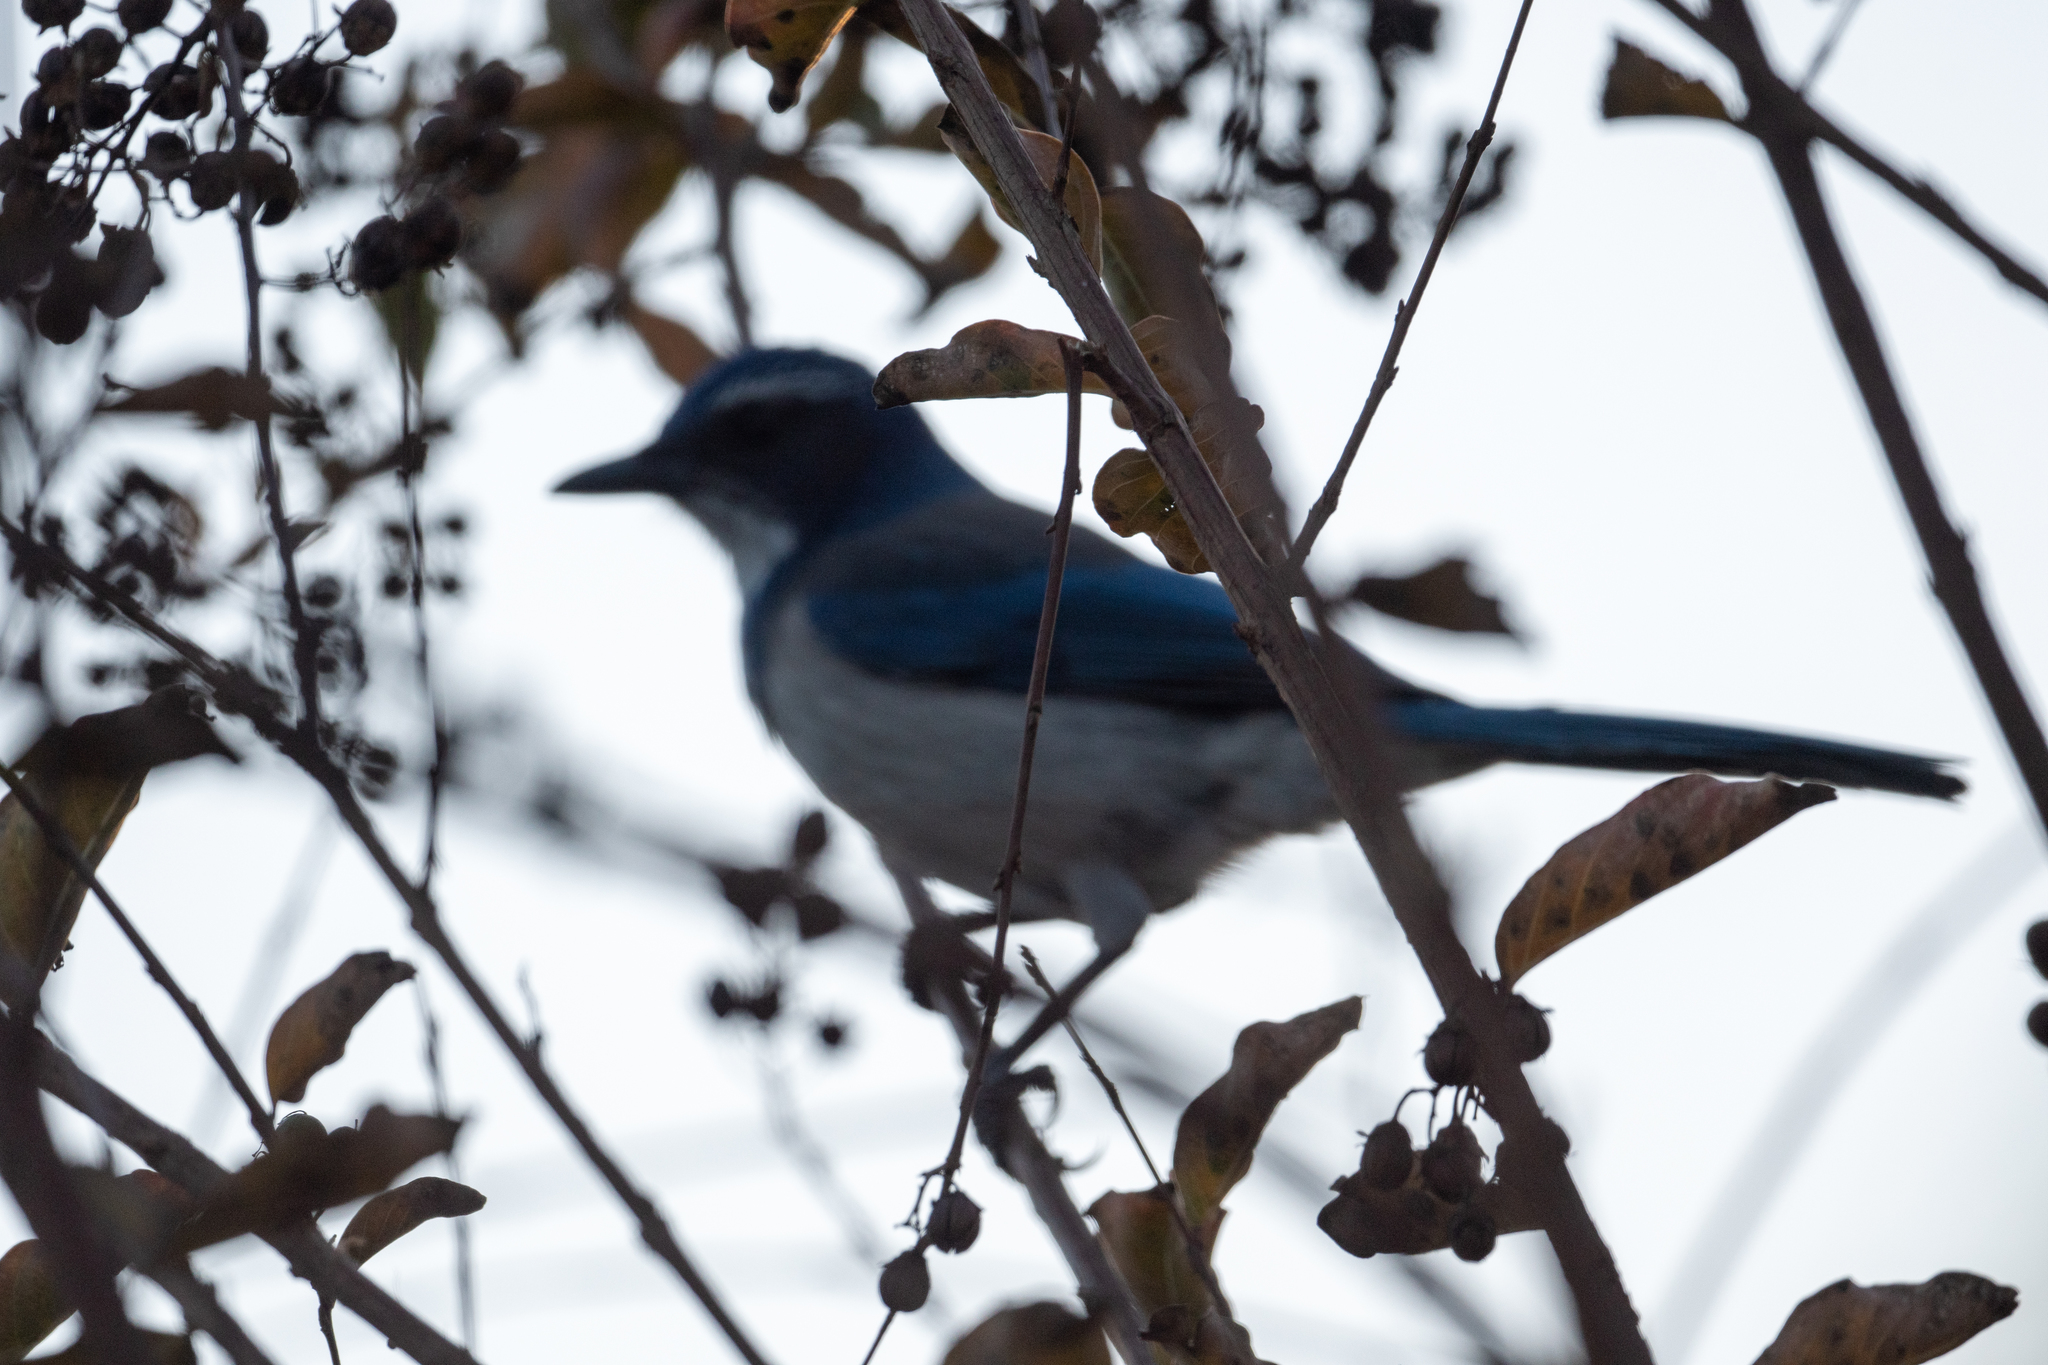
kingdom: Animalia
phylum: Chordata
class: Aves
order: Passeriformes
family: Corvidae
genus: Aphelocoma
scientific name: Aphelocoma californica
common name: California scrub-jay
